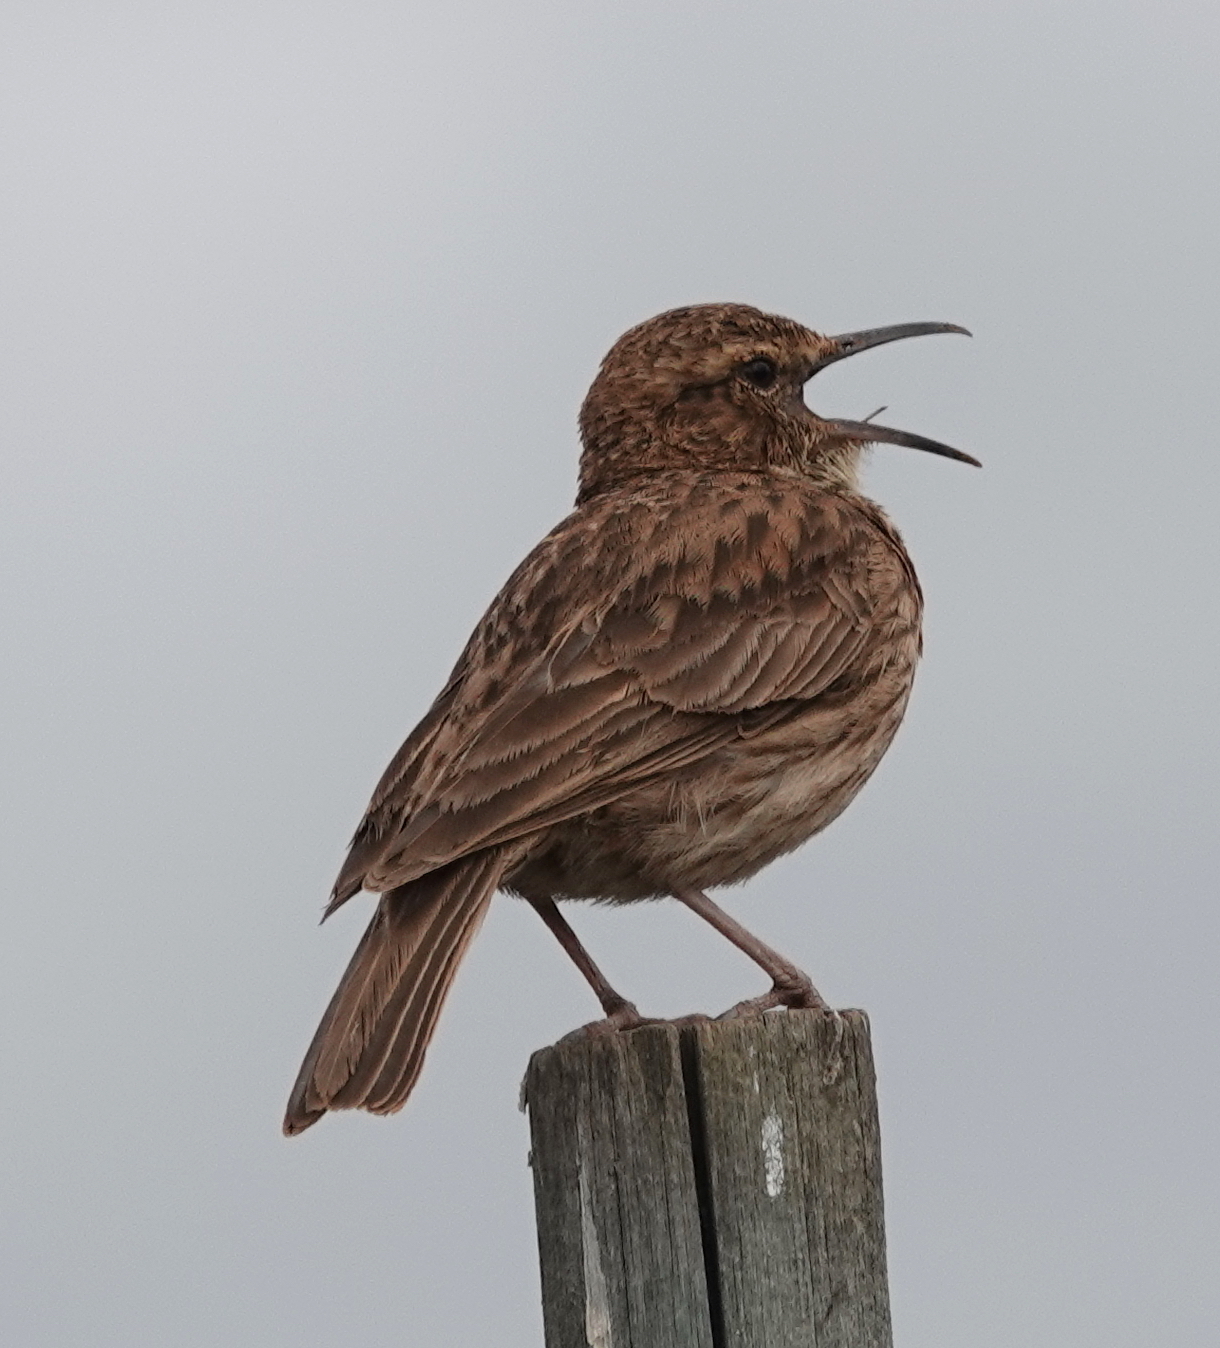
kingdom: Animalia
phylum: Chordata
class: Aves
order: Passeriformes
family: Alaudidae
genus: Certhilauda
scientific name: Certhilauda curvirostris
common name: Cape long-billed lark
